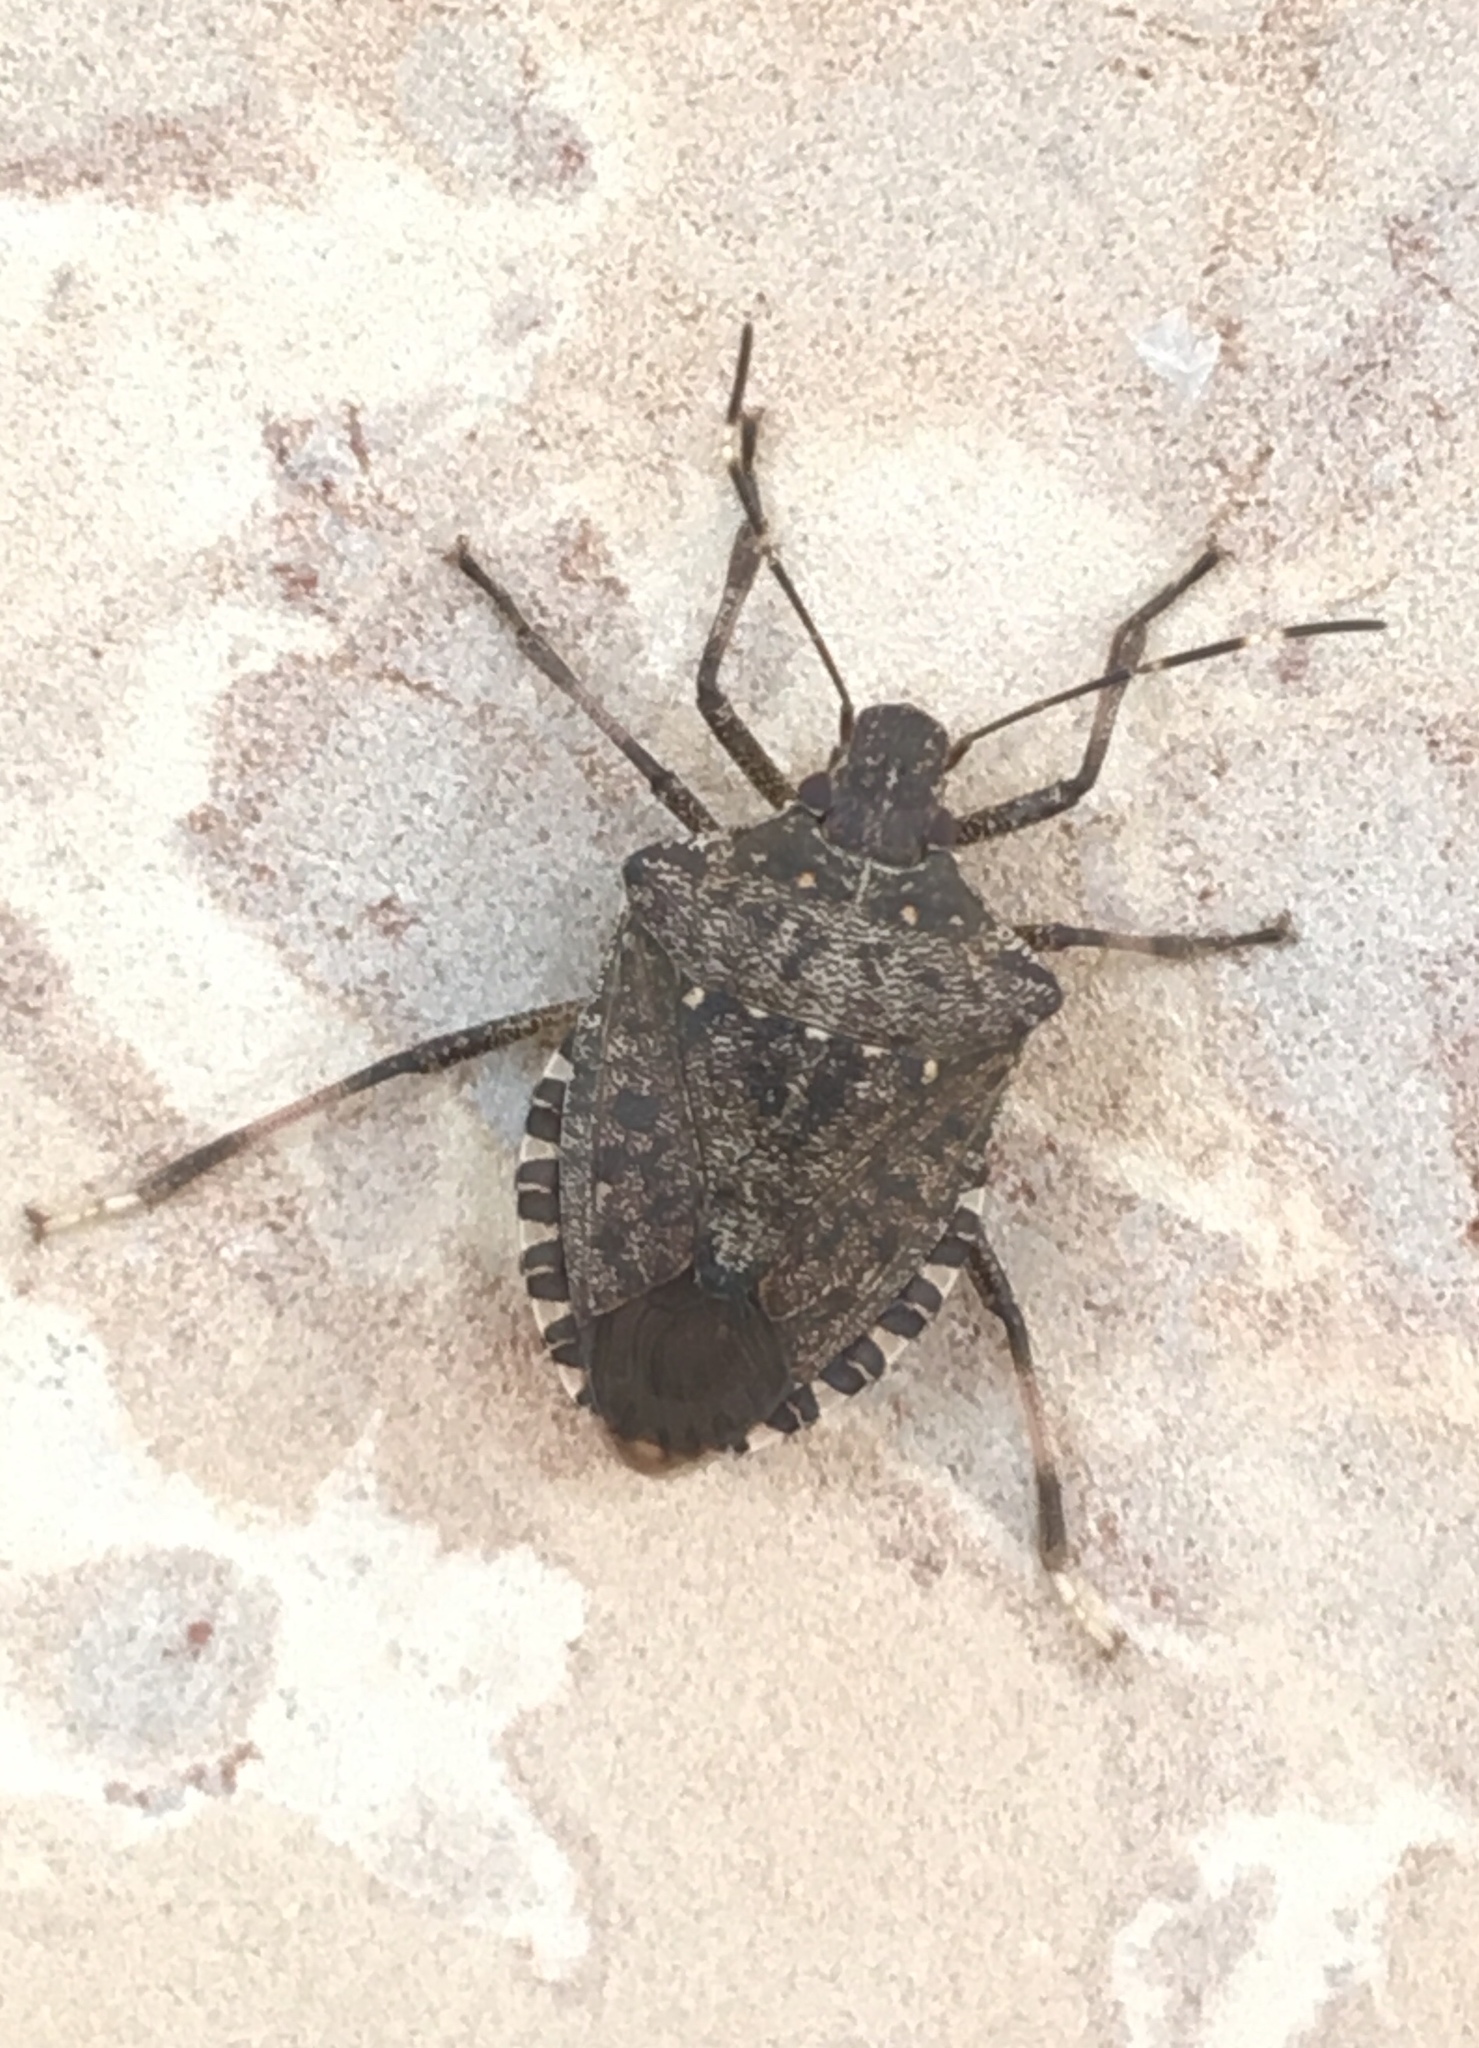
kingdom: Animalia
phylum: Arthropoda
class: Insecta
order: Hemiptera
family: Pentatomidae
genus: Halyomorpha
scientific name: Halyomorpha halys
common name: Brown marmorated stink bug
